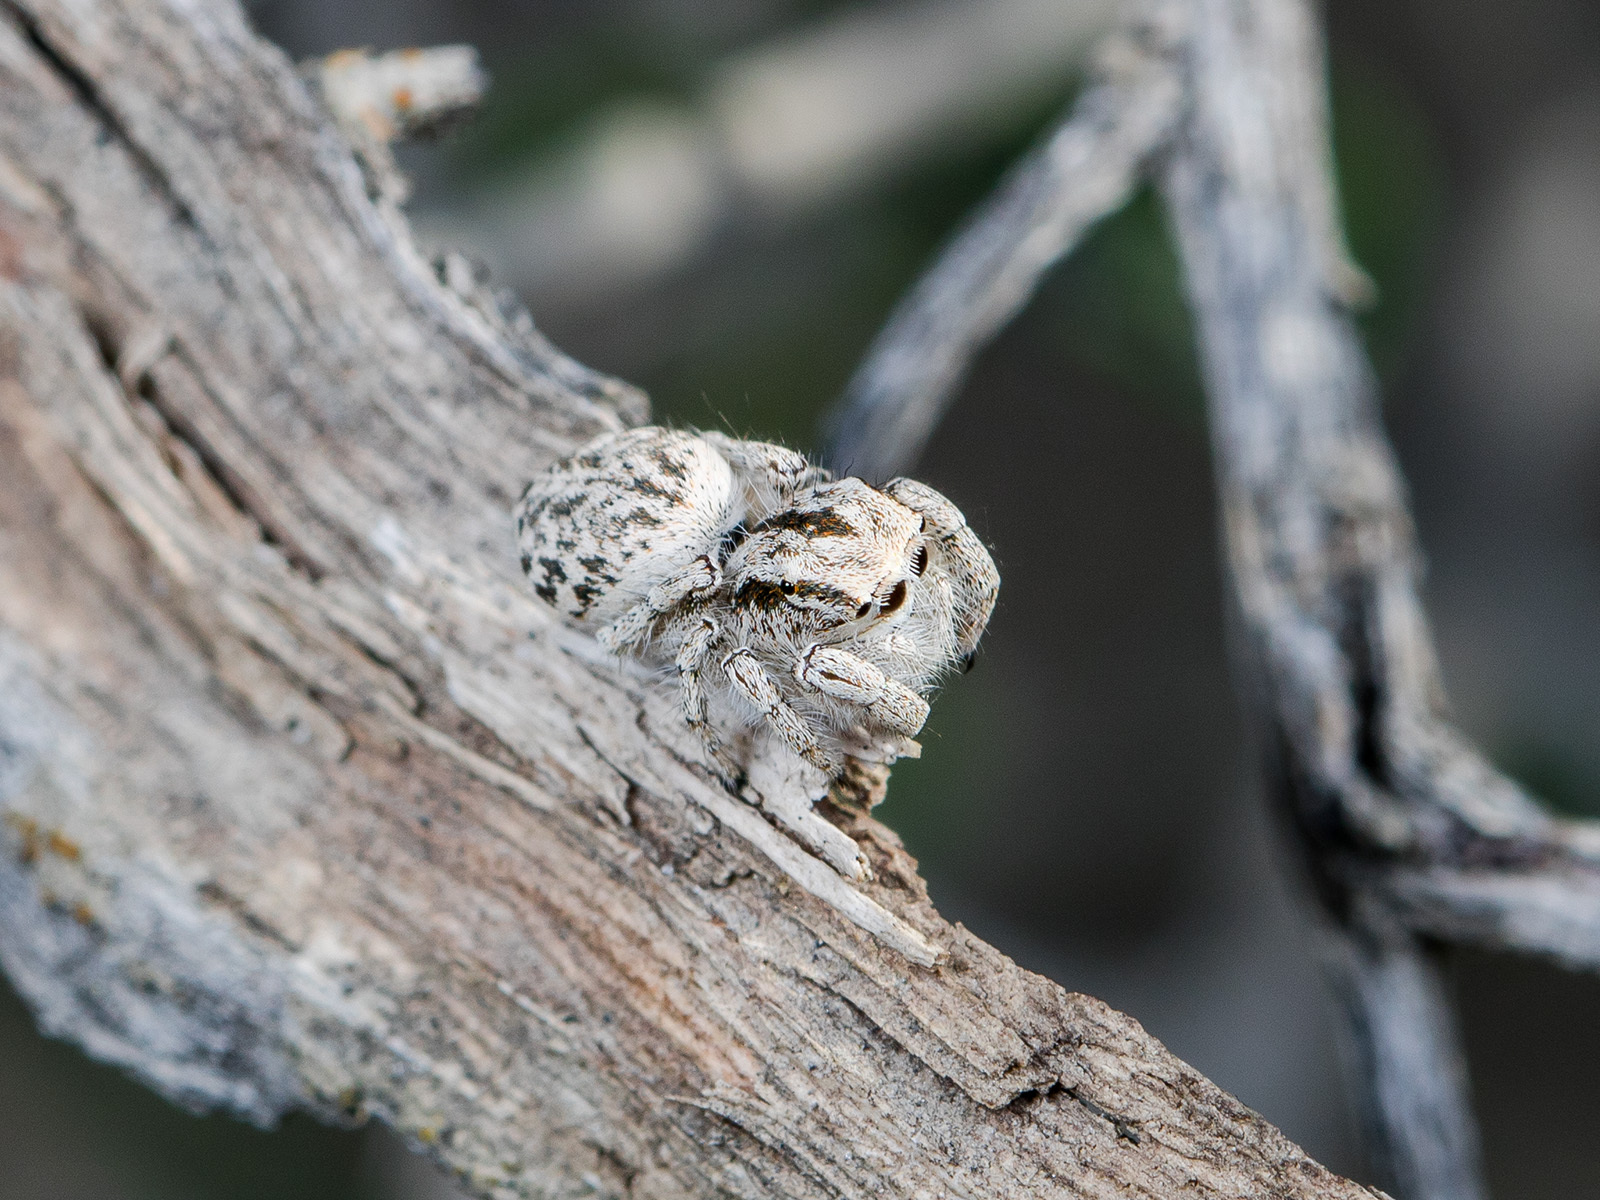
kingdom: Animalia
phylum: Arthropoda
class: Arachnida
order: Araneae
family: Salticidae
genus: Marusyllus
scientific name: Marusyllus aralicus
